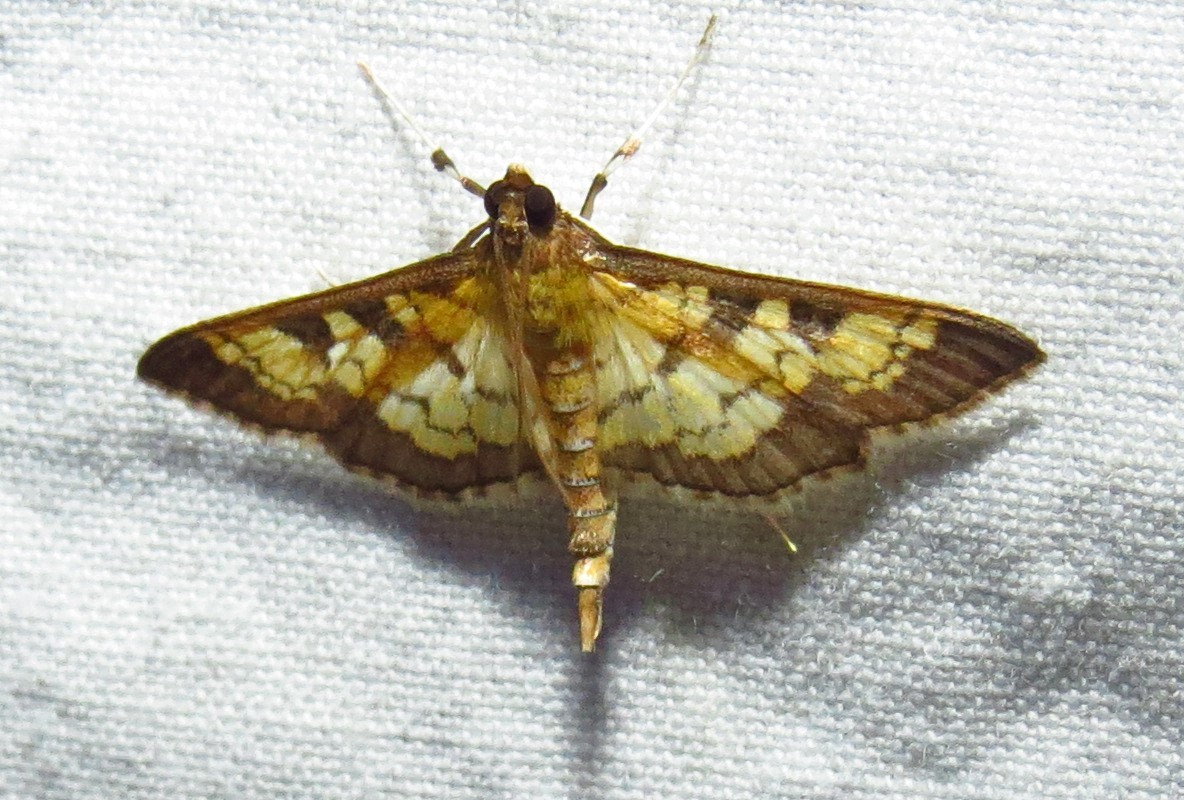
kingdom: Animalia
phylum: Arthropoda
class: Insecta
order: Lepidoptera
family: Crambidae
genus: Epipagis
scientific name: Epipagis adipaloides
